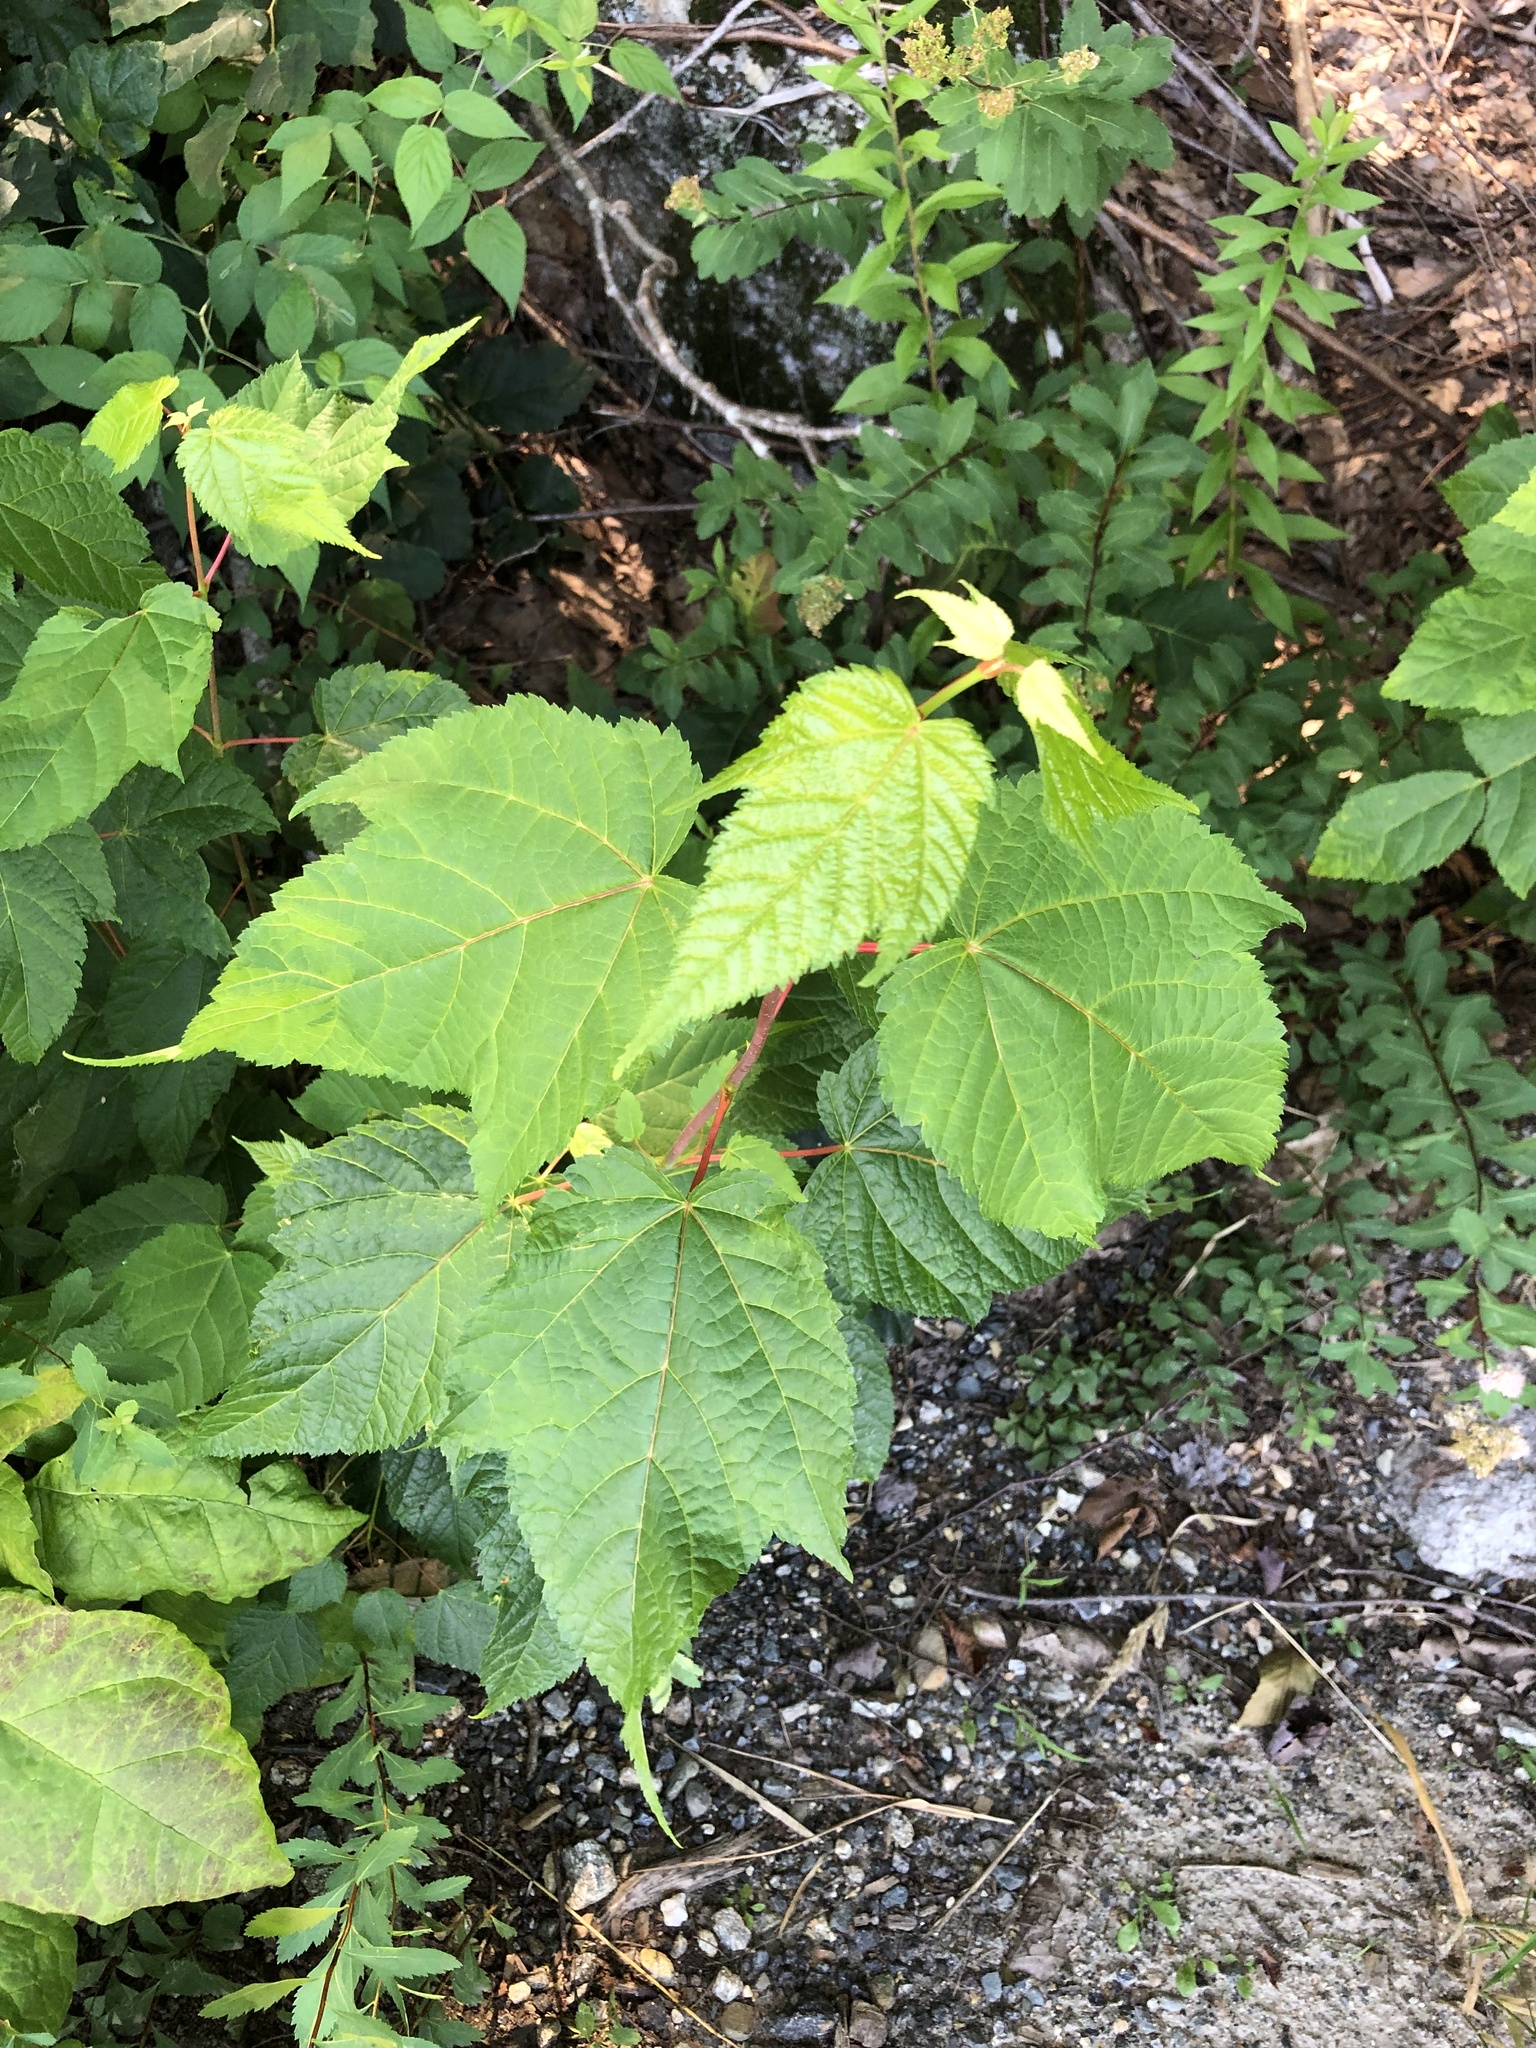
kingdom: Plantae
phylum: Tracheophyta
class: Magnoliopsida
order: Sapindales
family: Sapindaceae
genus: Acer
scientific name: Acer pensylvanicum
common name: Moosewood
